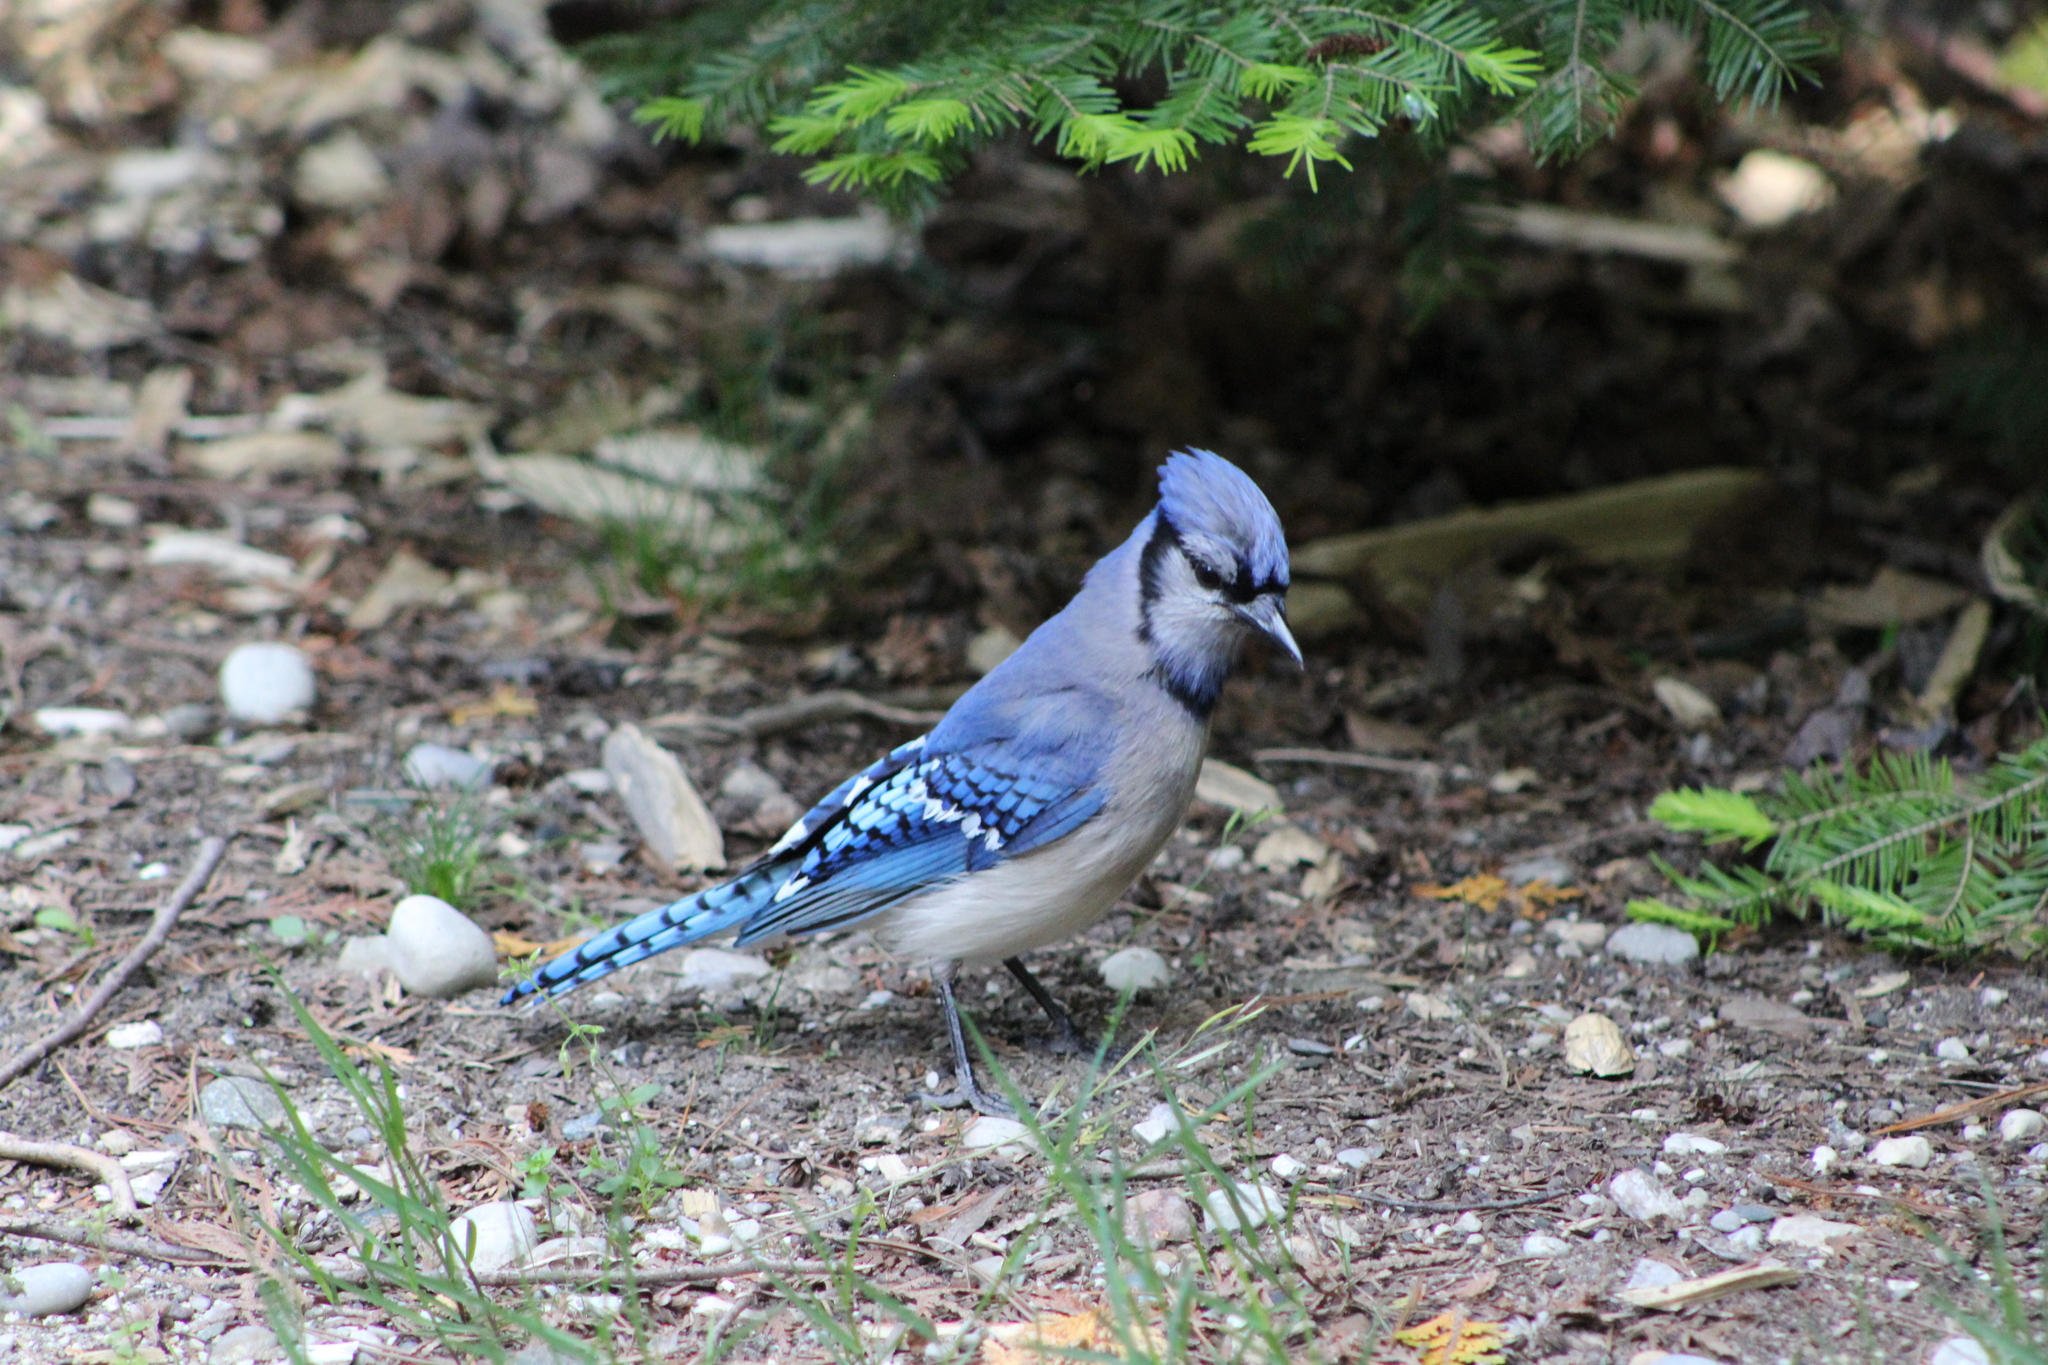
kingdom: Animalia
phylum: Chordata
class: Aves
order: Passeriformes
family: Corvidae
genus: Cyanocitta
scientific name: Cyanocitta cristata
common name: Blue jay
